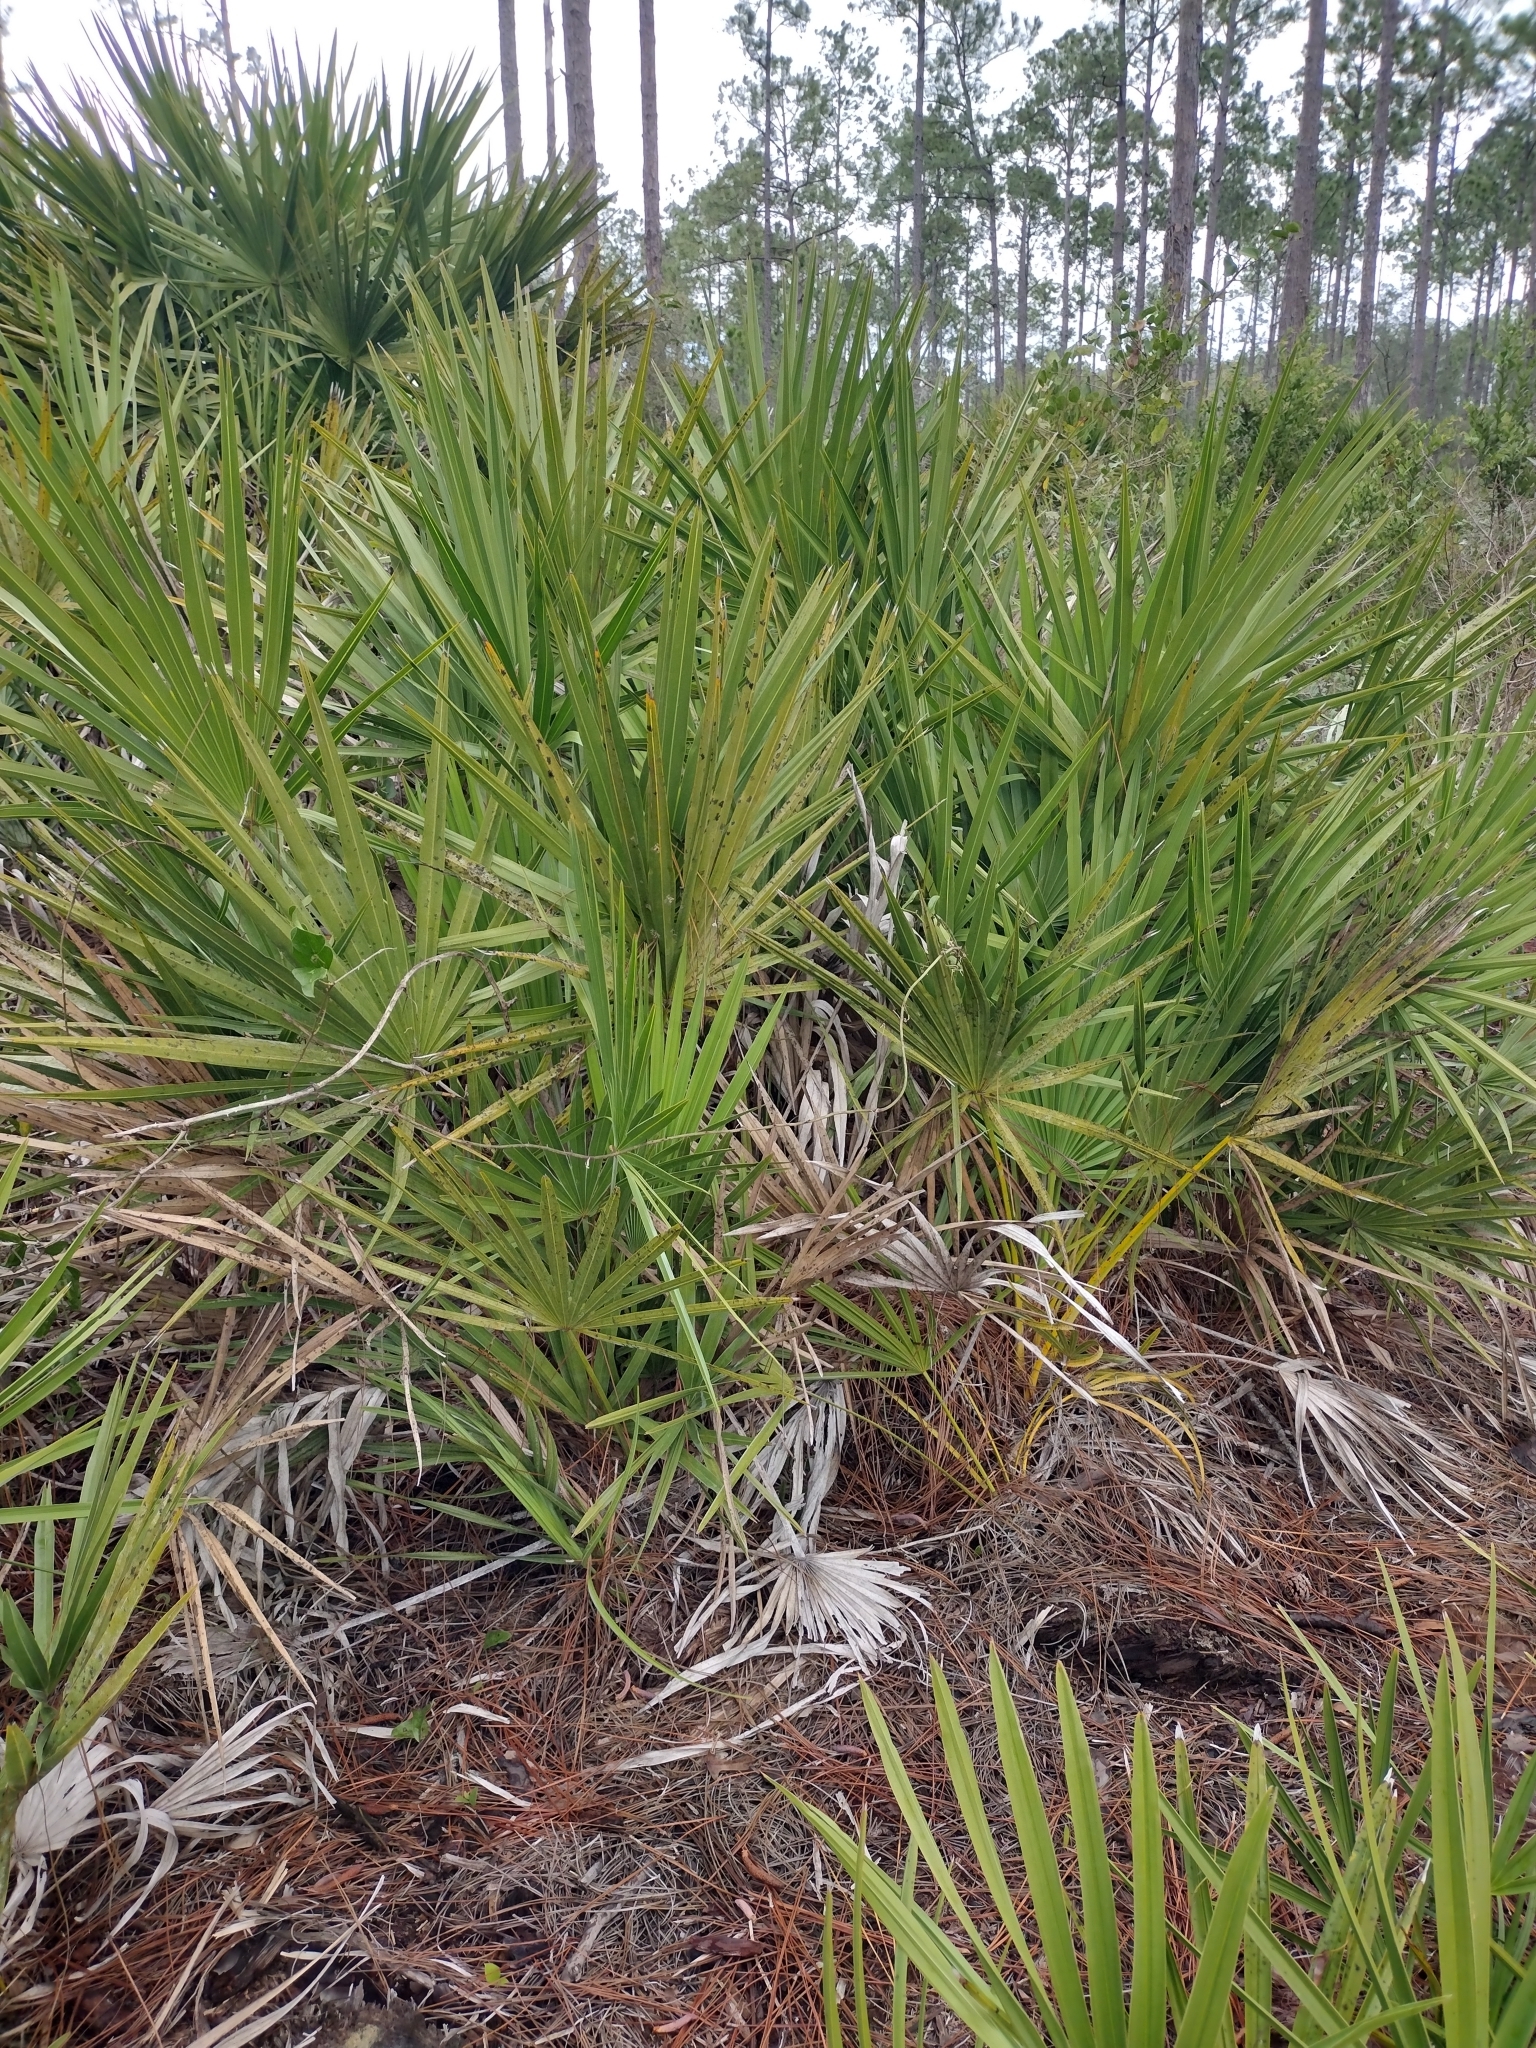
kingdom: Plantae
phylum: Tracheophyta
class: Liliopsida
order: Arecales
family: Arecaceae
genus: Serenoa
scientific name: Serenoa repens
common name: Saw-palmetto
